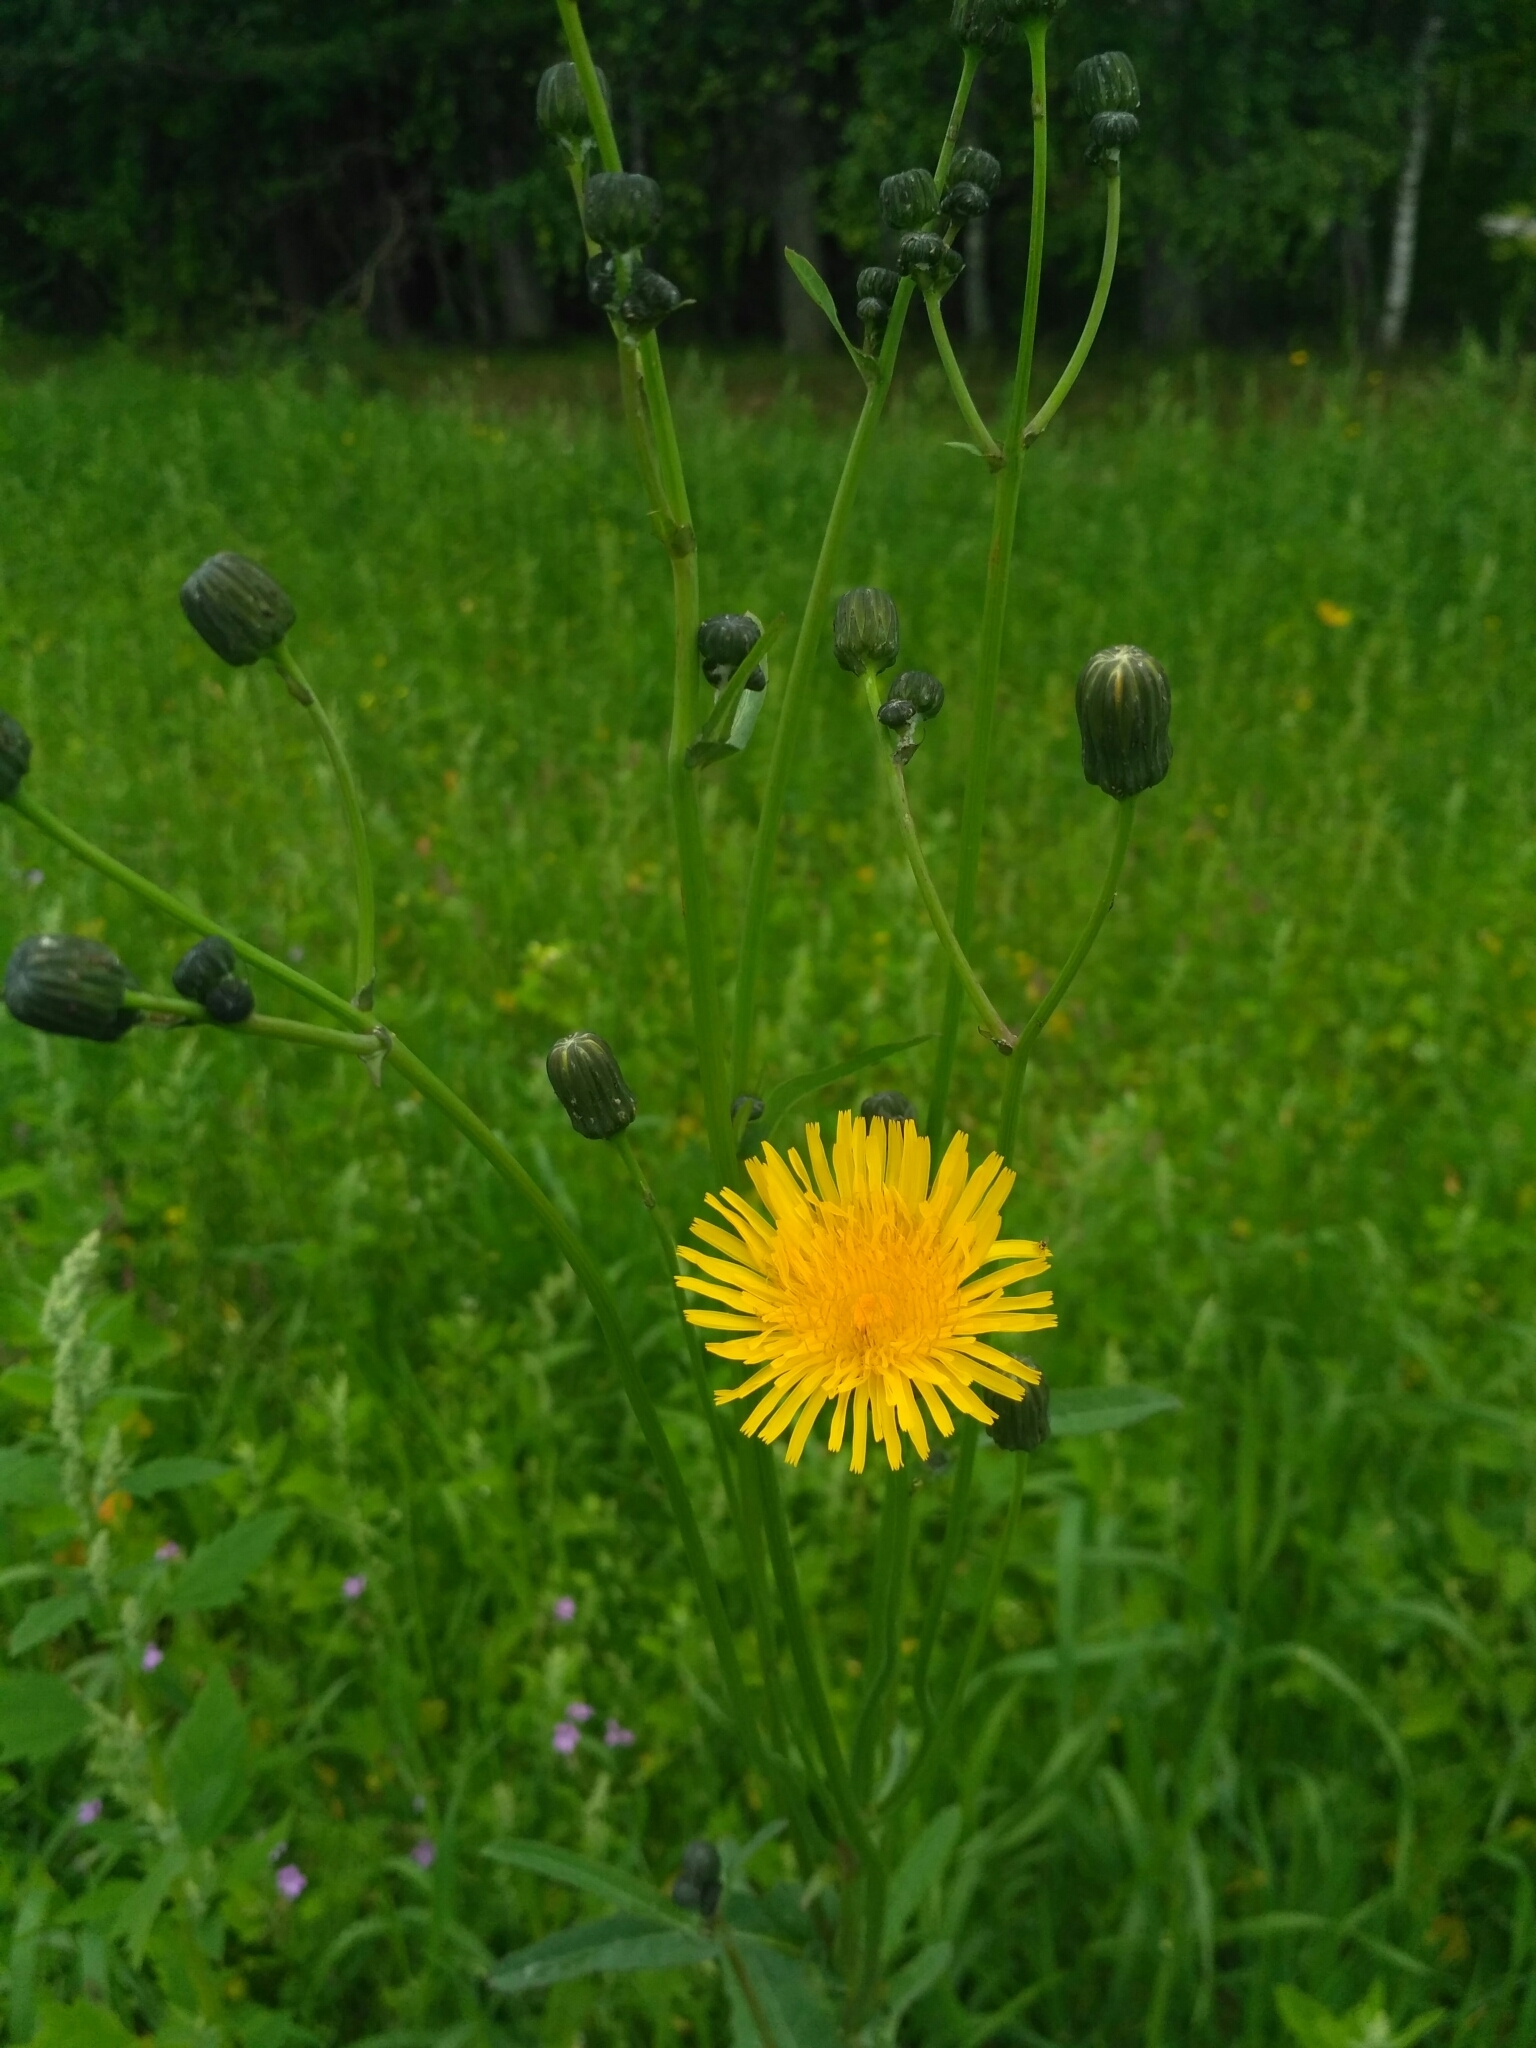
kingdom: Plantae
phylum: Tracheophyta
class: Magnoliopsida
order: Asterales
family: Asteraceae
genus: Sonchus
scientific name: Sonchus arvensis
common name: Perennial sow-thistle
